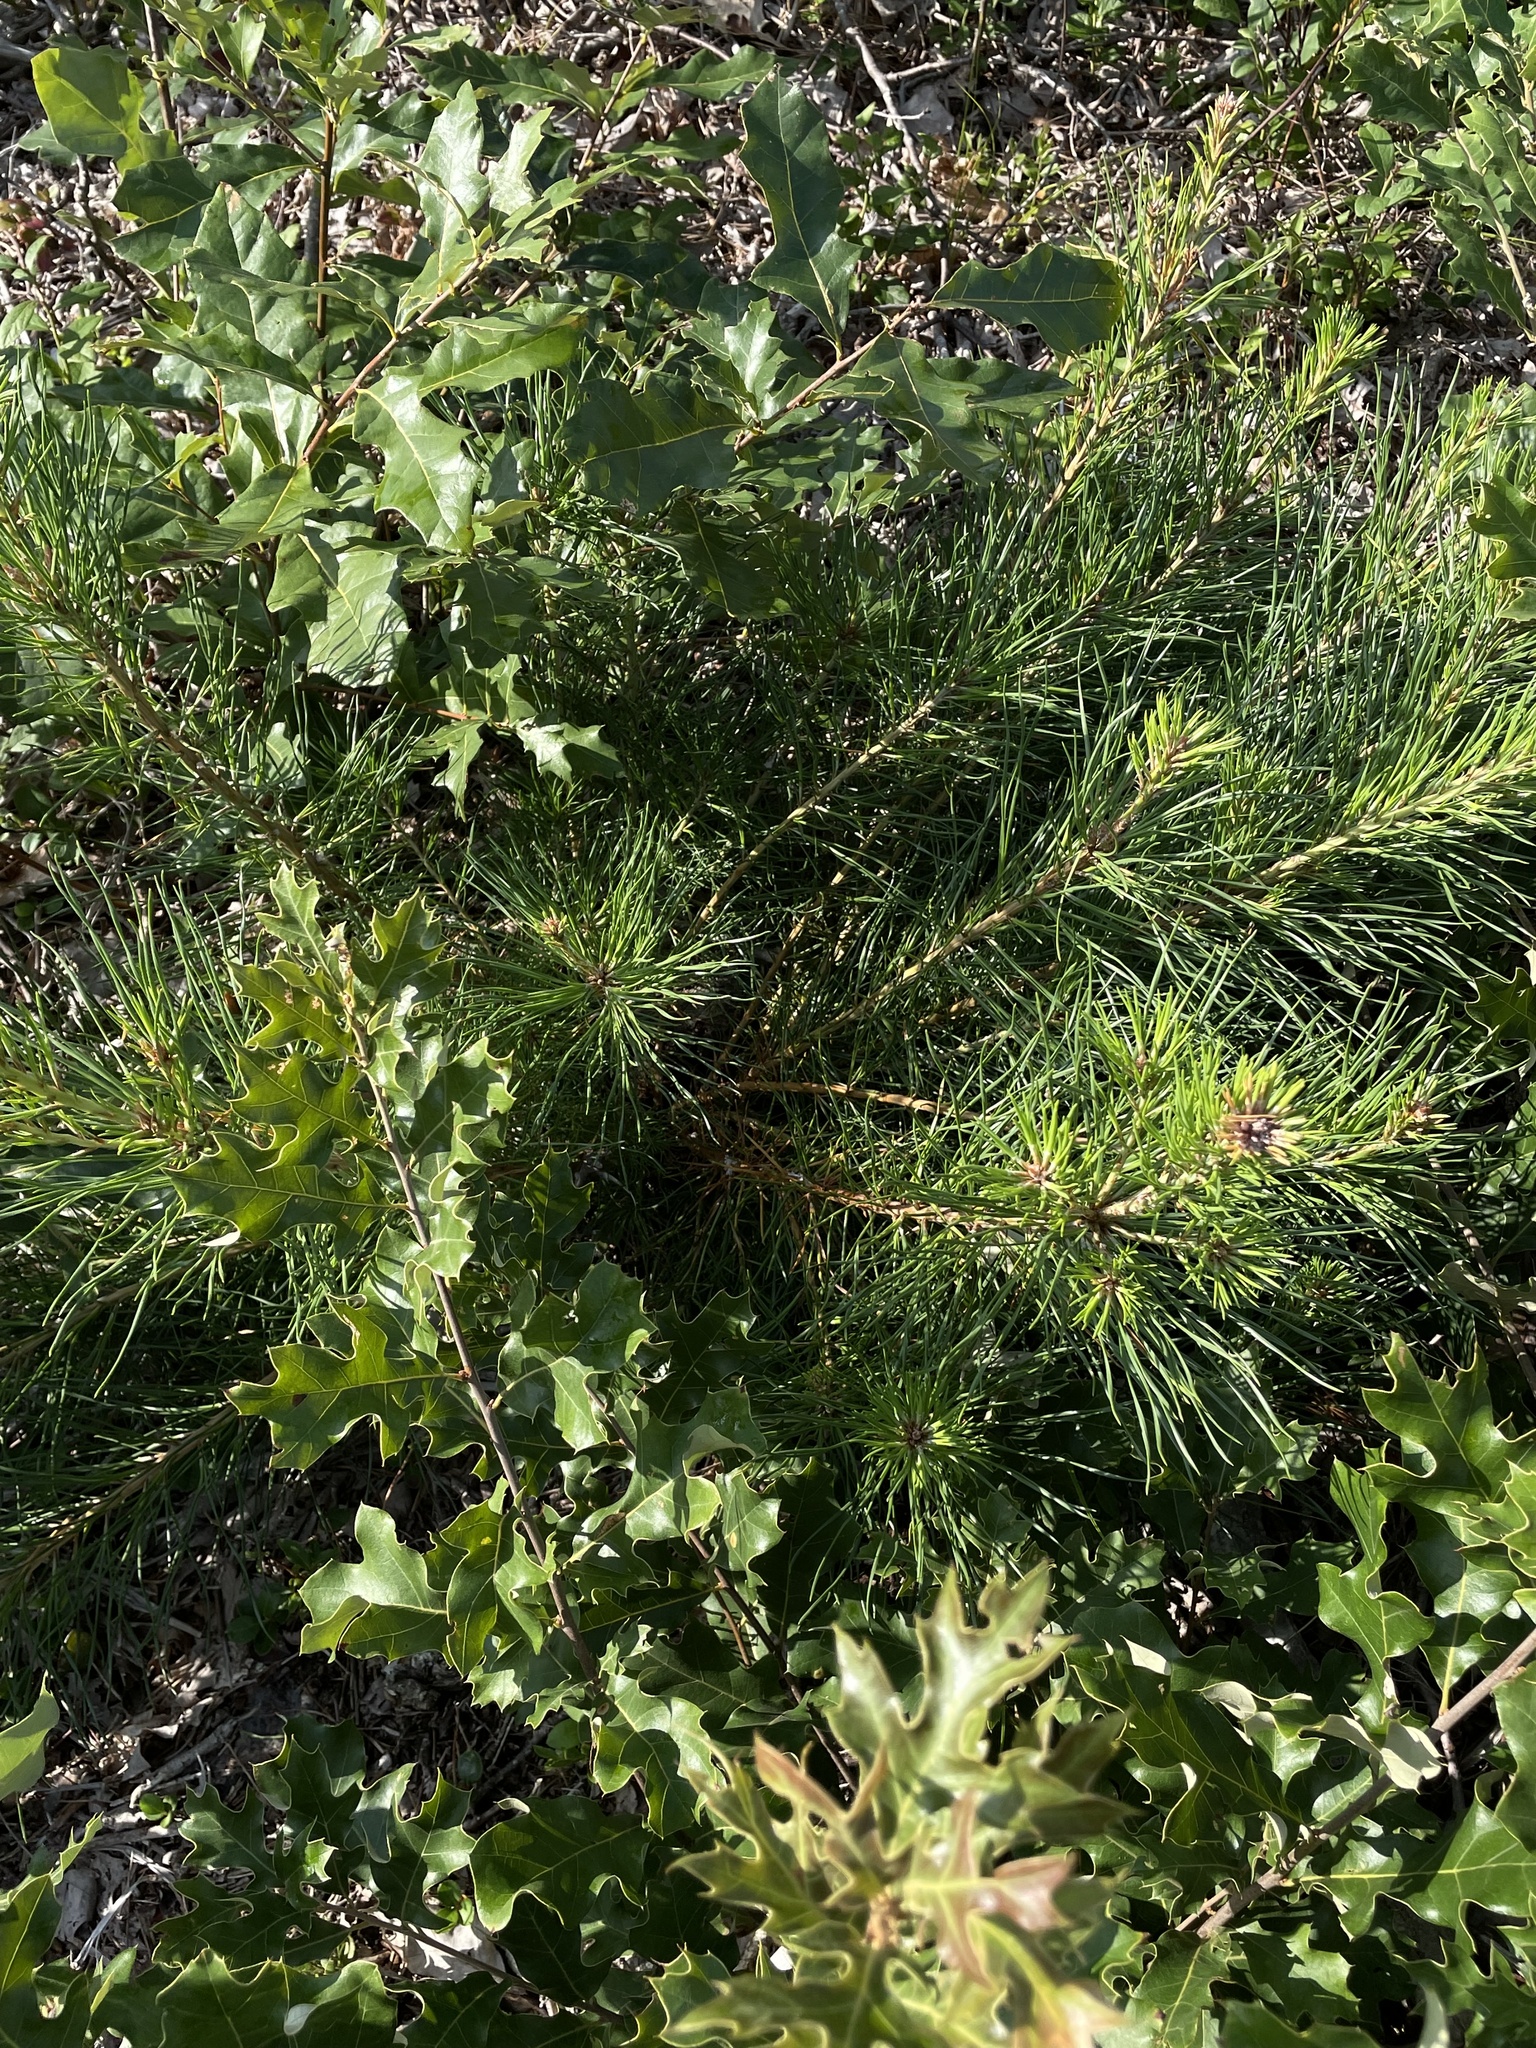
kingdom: Plantae
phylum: Tracheophyta
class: Pinopsida
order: Pinales
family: Pinaceae
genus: Pinus
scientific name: Pinus rigida
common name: Pitch pine
